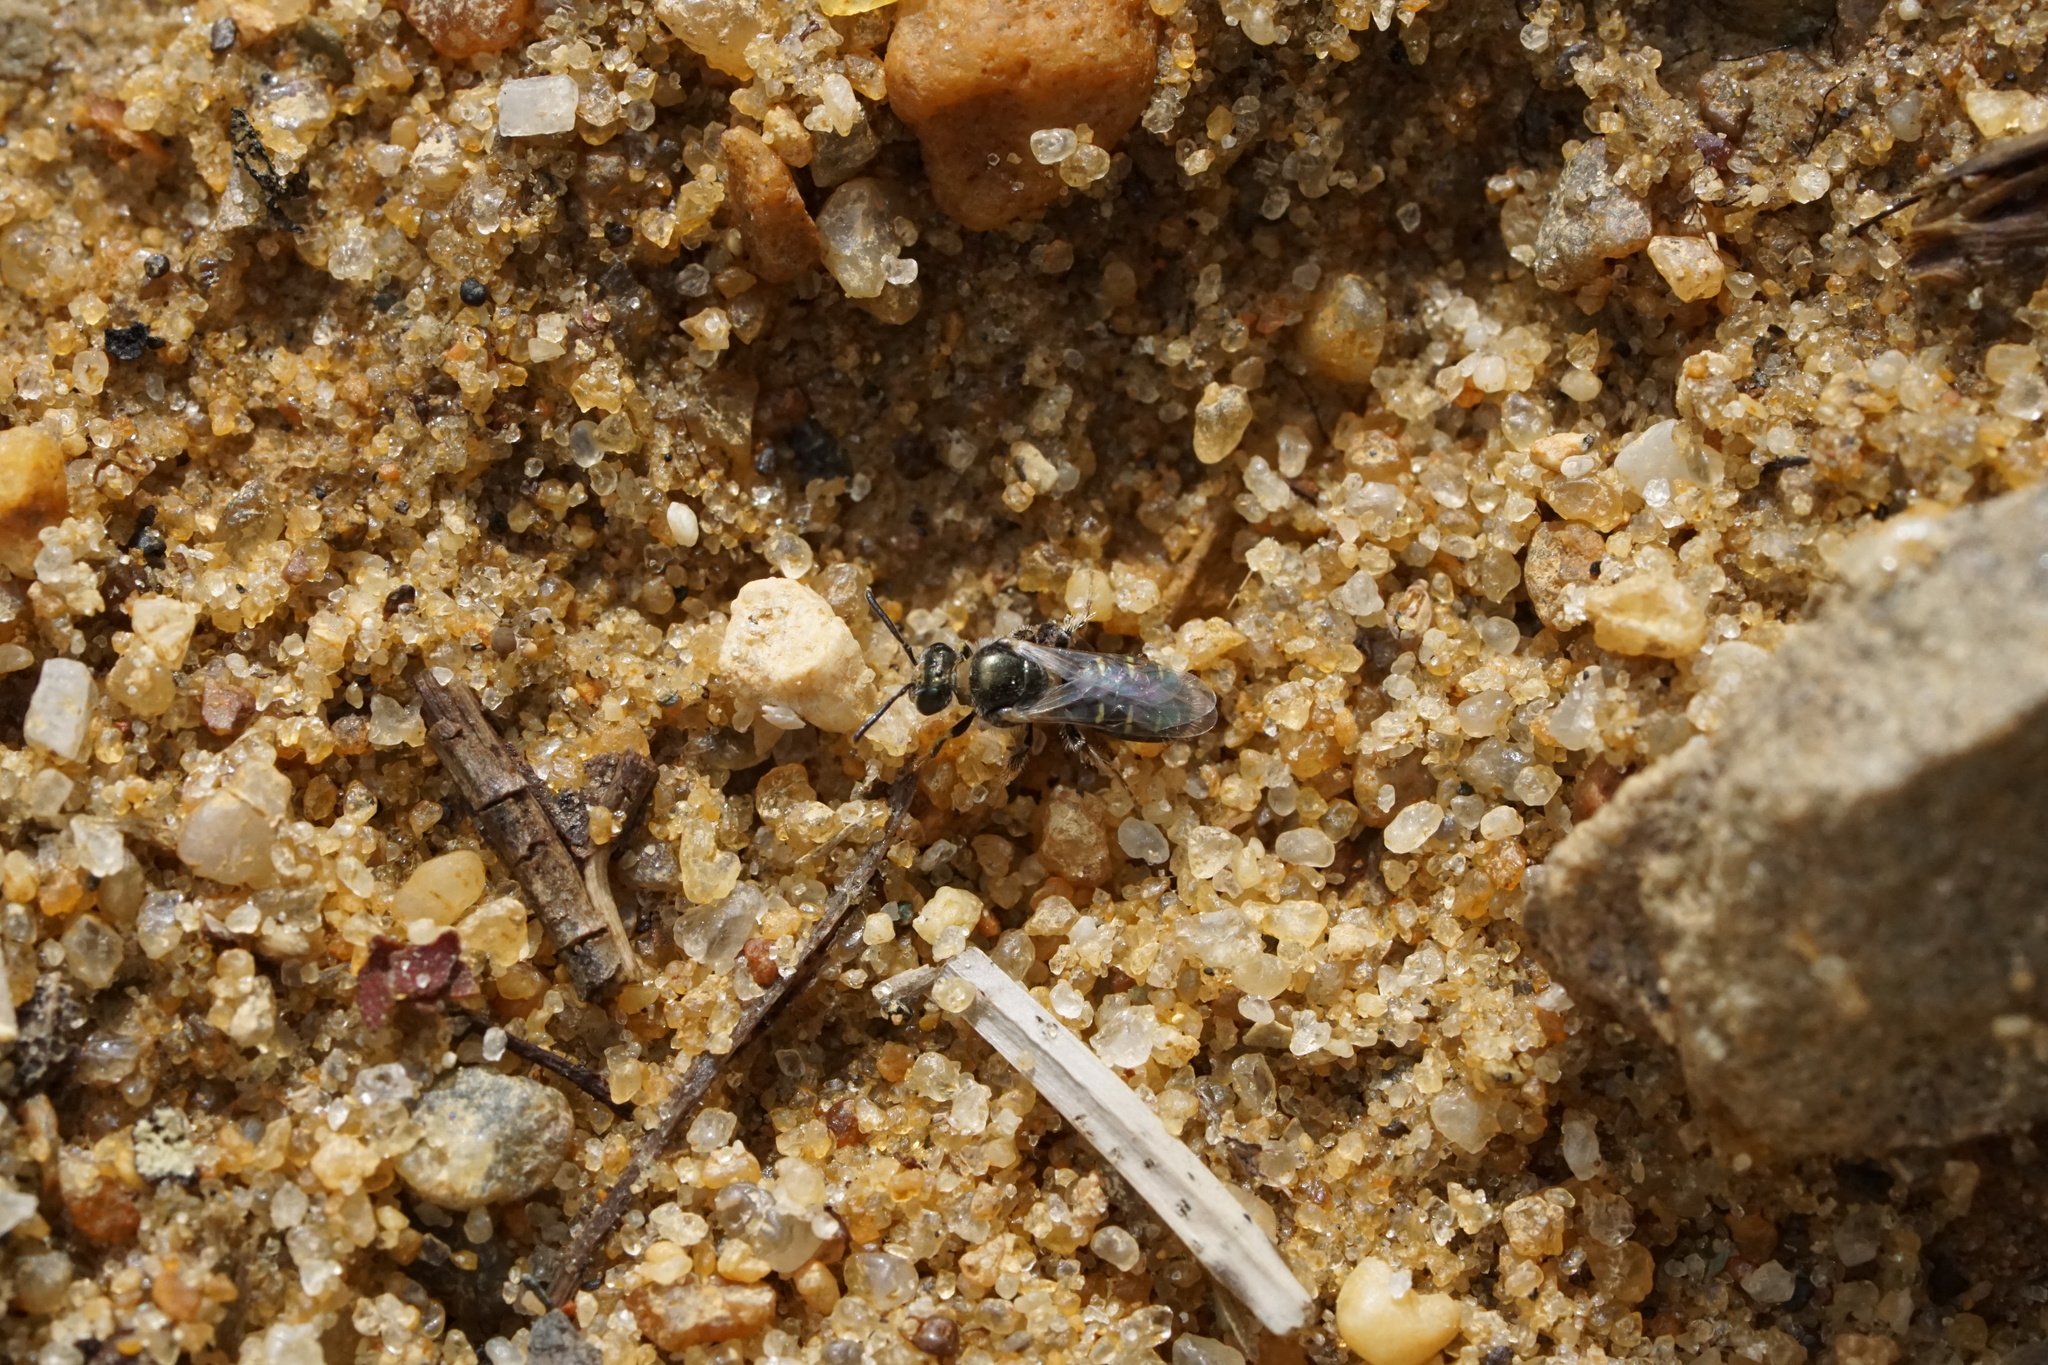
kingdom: Animalia
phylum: Arthropoda
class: Insecta
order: Hymenoptera
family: Andrenidae
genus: Perdita
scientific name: Perdita bradleyi
